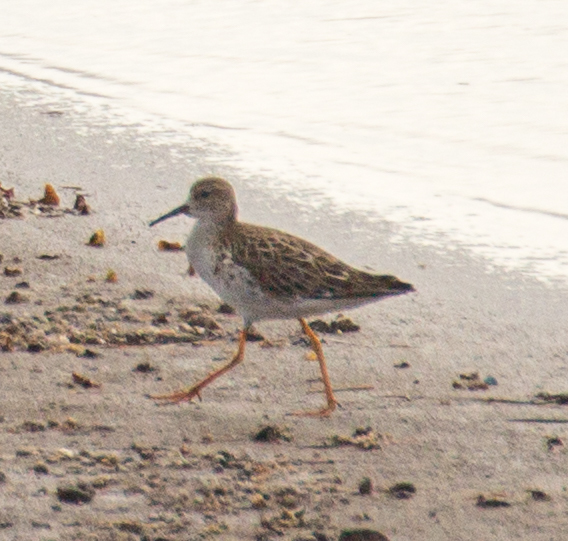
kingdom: Animalia
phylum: Chordata
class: Aves
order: Charadriiformes
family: Scolopacidae
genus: Calidris
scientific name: Calidris pugnax
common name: Ruff
